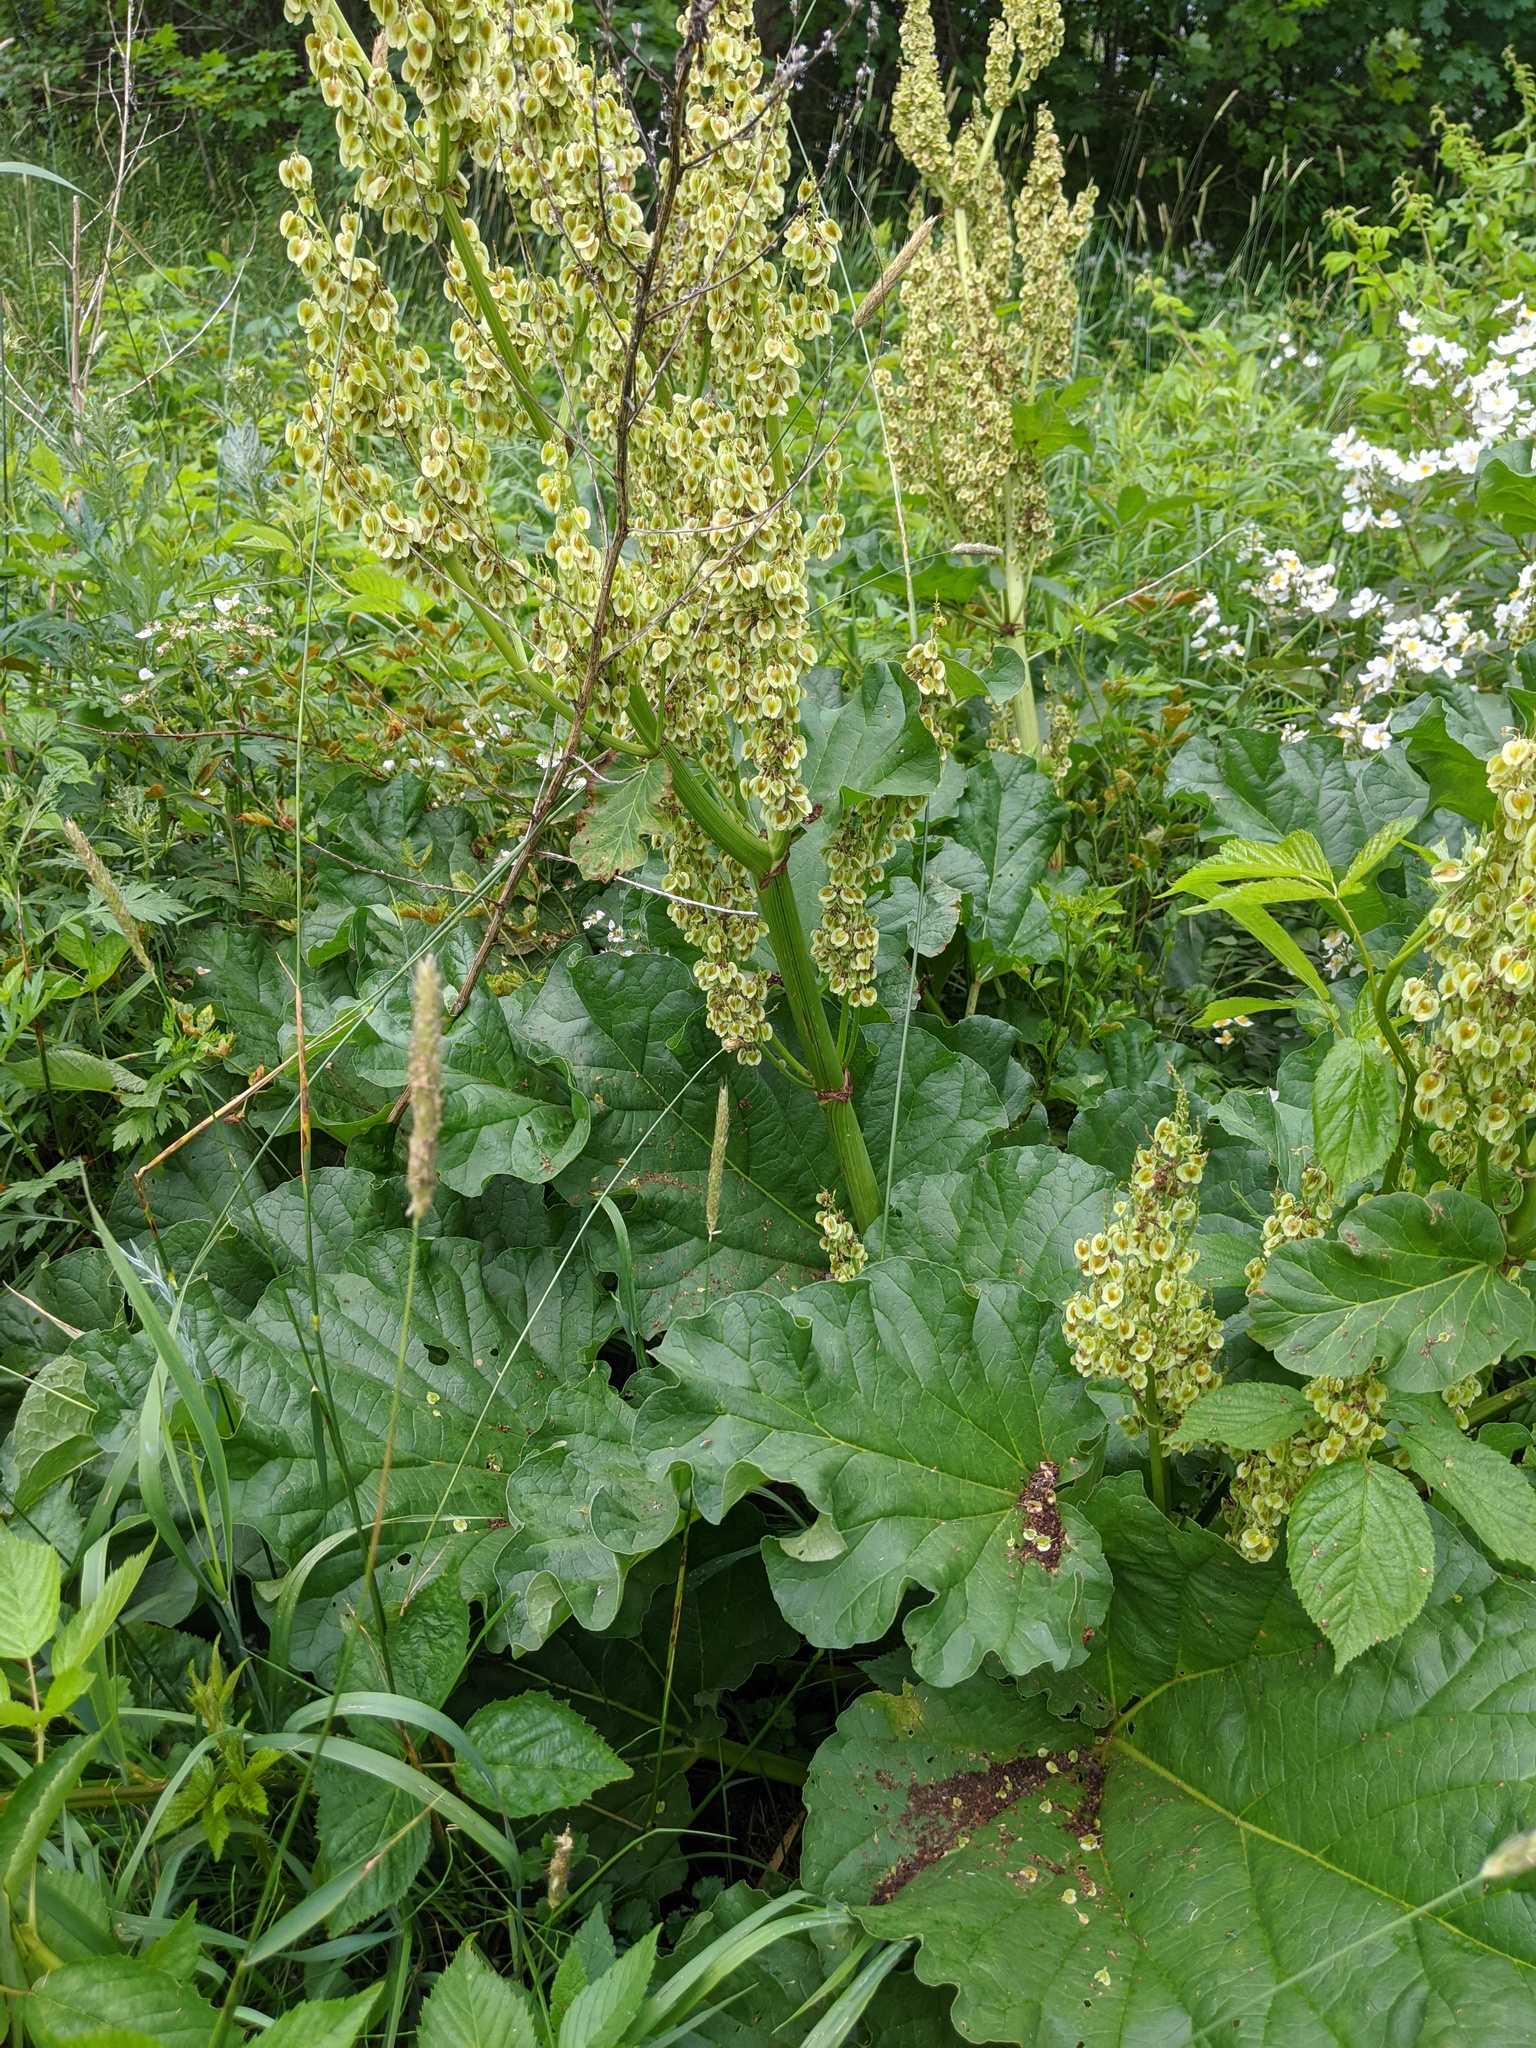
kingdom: Plantae
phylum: Tracheophyta
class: Magnoliopsida
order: Caryophyllales
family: Polygonaceae
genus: Rheum
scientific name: Rheum hybridum
